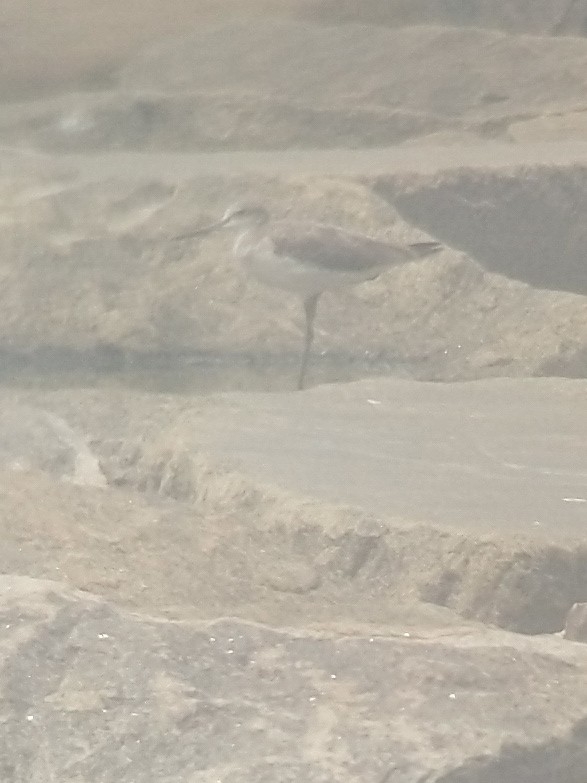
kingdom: Animalia
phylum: Chordata
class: Aves
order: Charadriiformes
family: Scolopacidae
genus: Tringa
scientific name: Tringa nebularia
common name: Common greenshank
